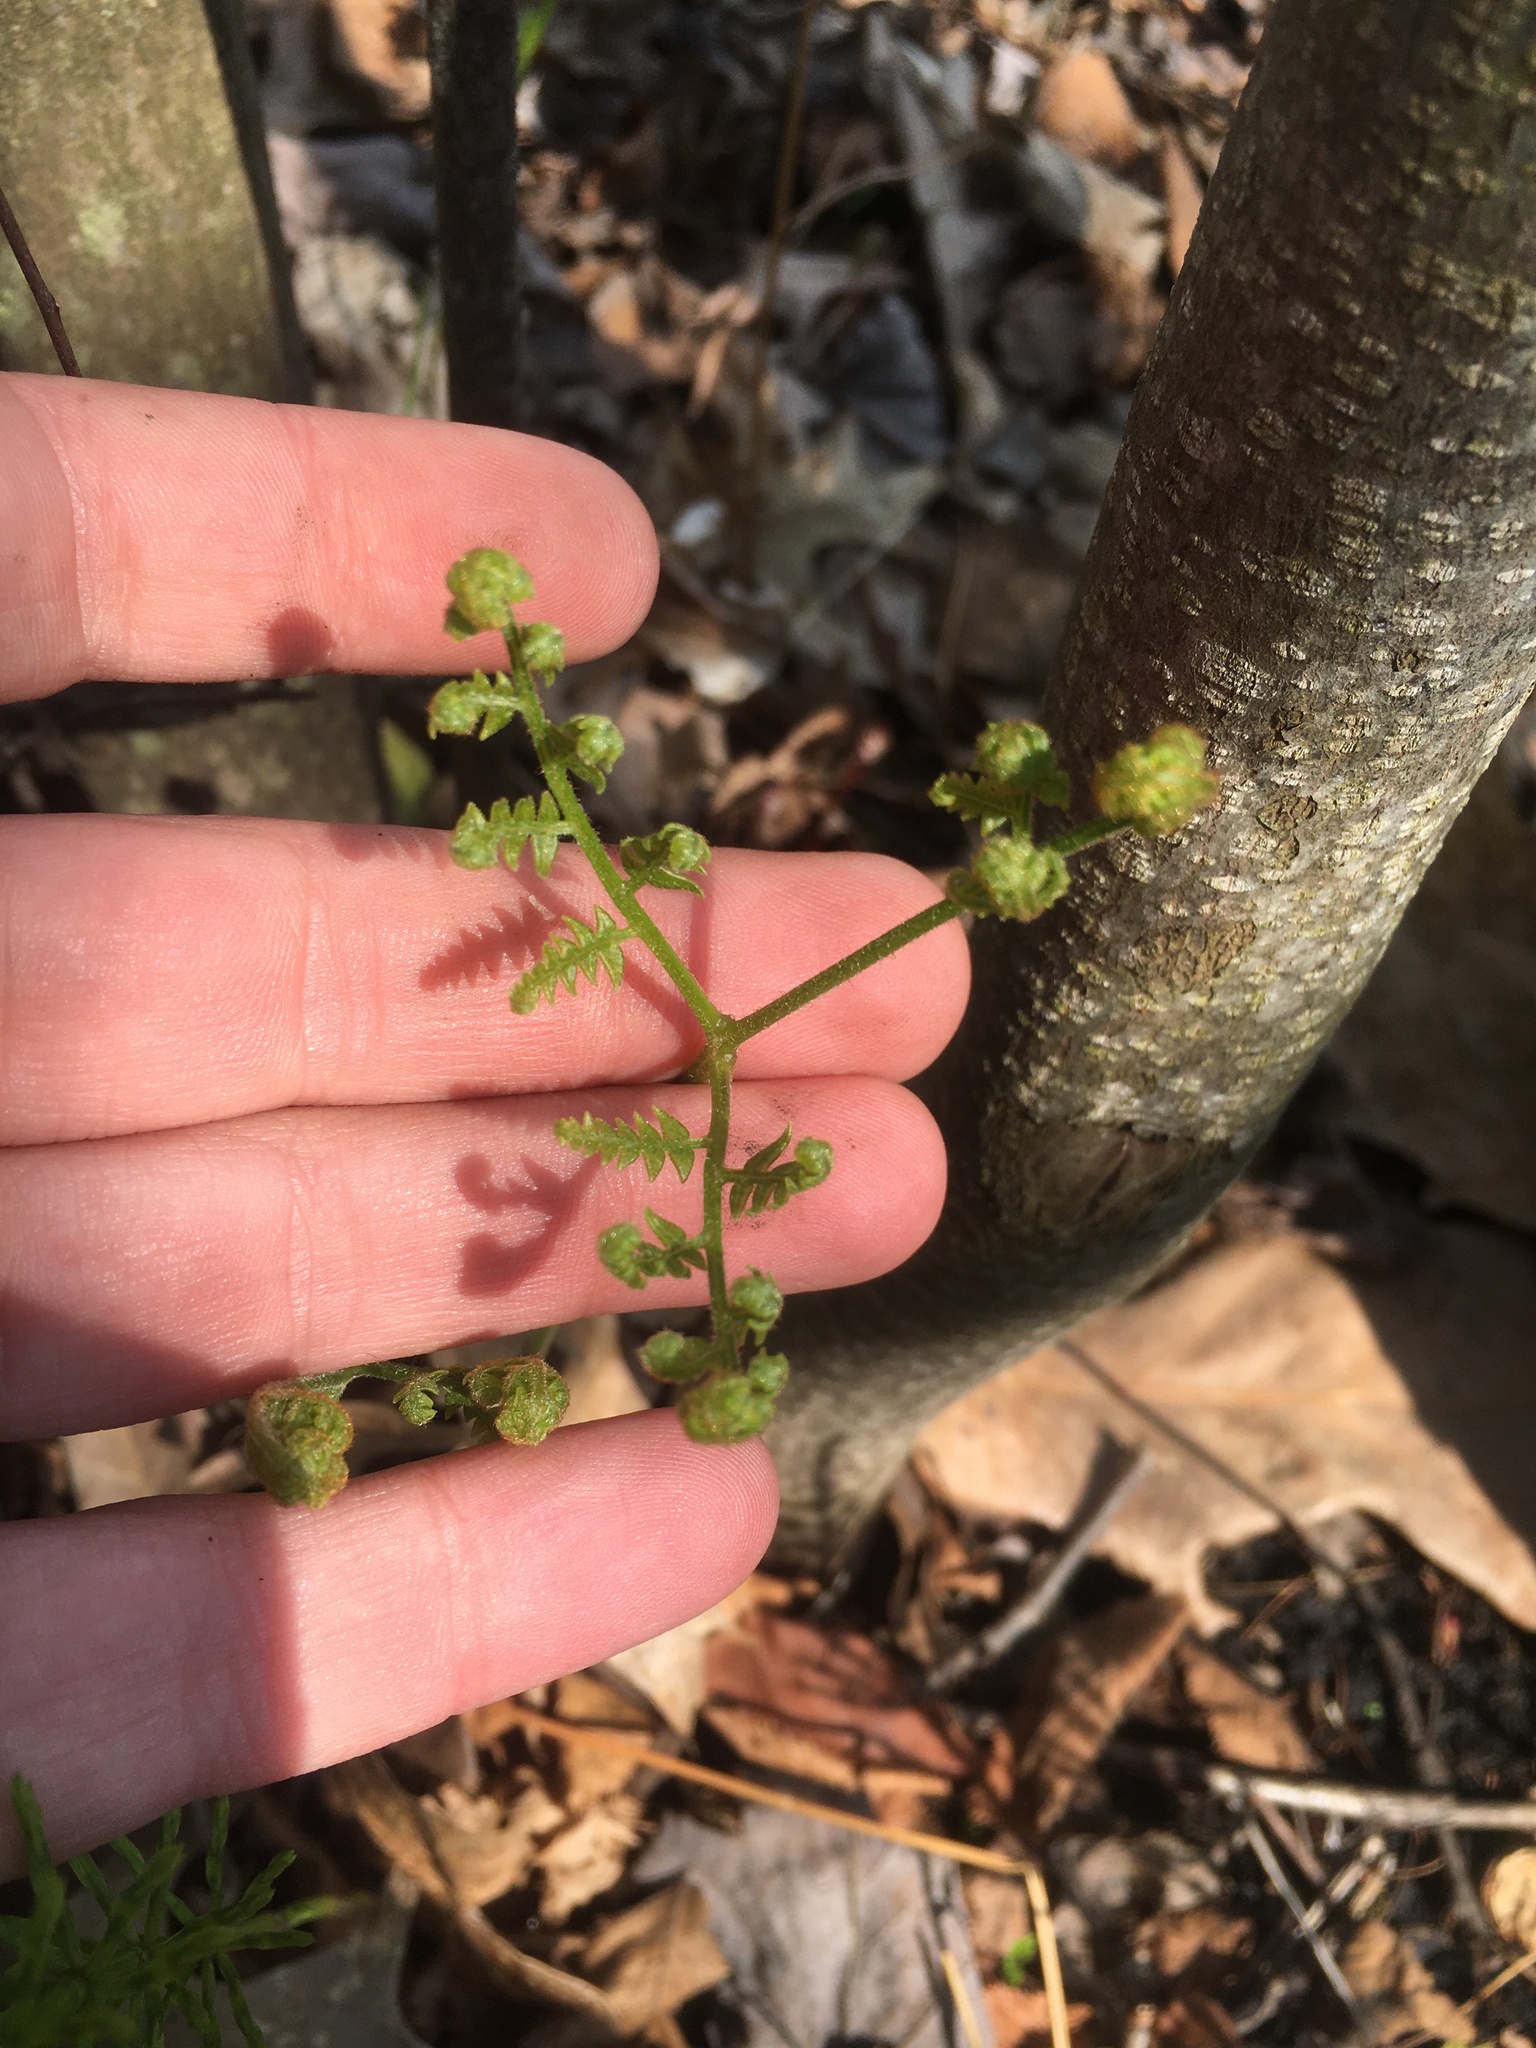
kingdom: Plantae
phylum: Tracheophyta
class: Polypodiopsida
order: Polypodiales
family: Dennstaedtiaceae
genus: Pteridium
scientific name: Pteridium aquilinum
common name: Bracken
